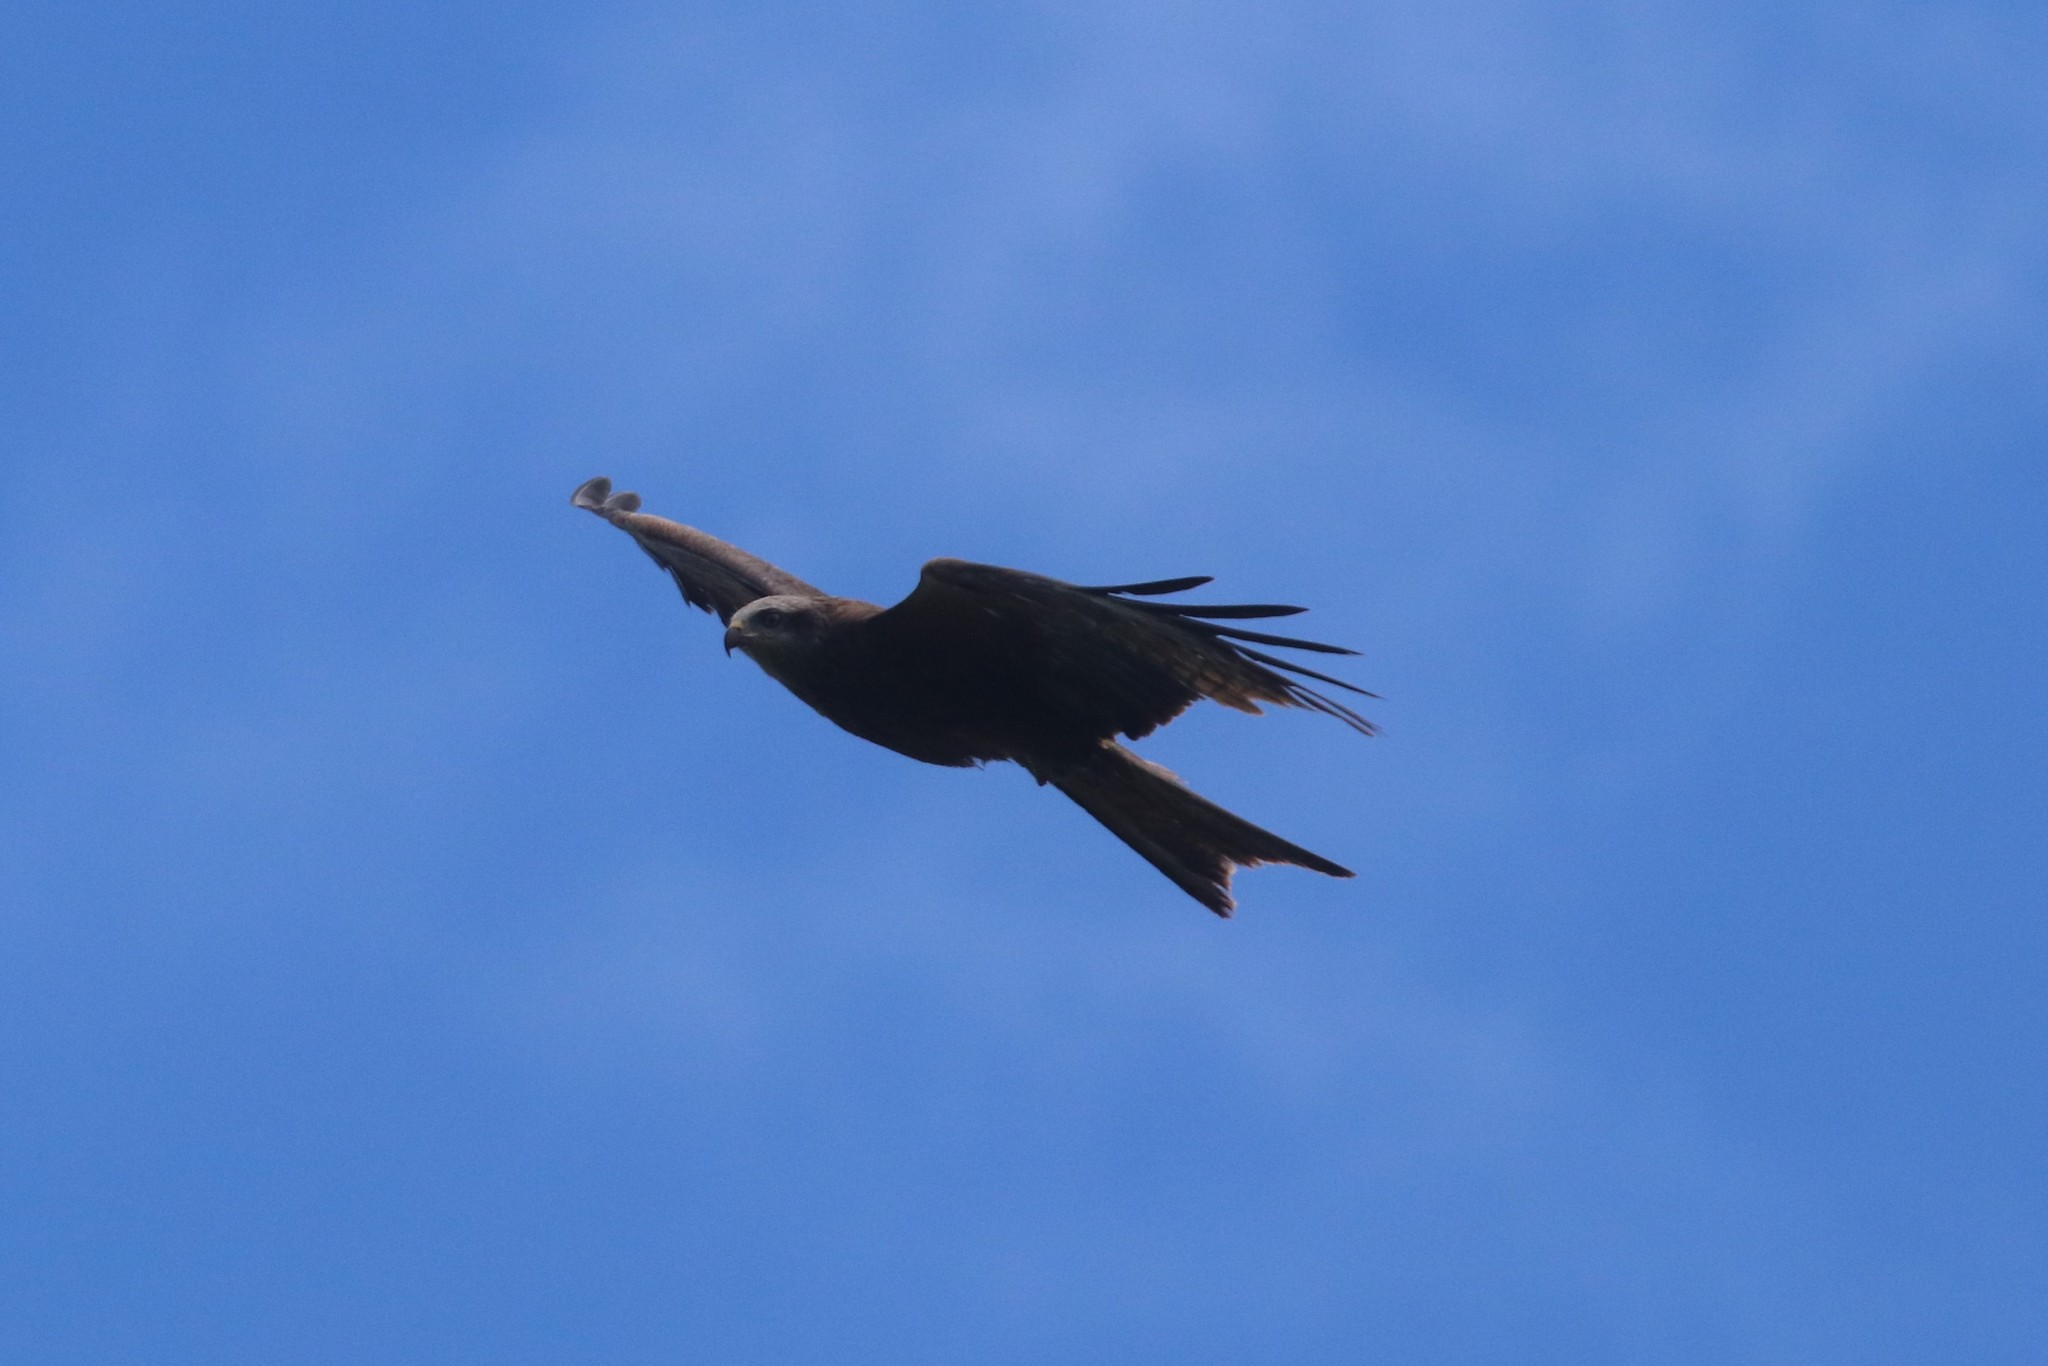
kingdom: Animalia
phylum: Chordata
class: Aves
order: Accipitriformes
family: Accipitridae
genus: Milvus
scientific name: Milvus migrans
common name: Black kite
